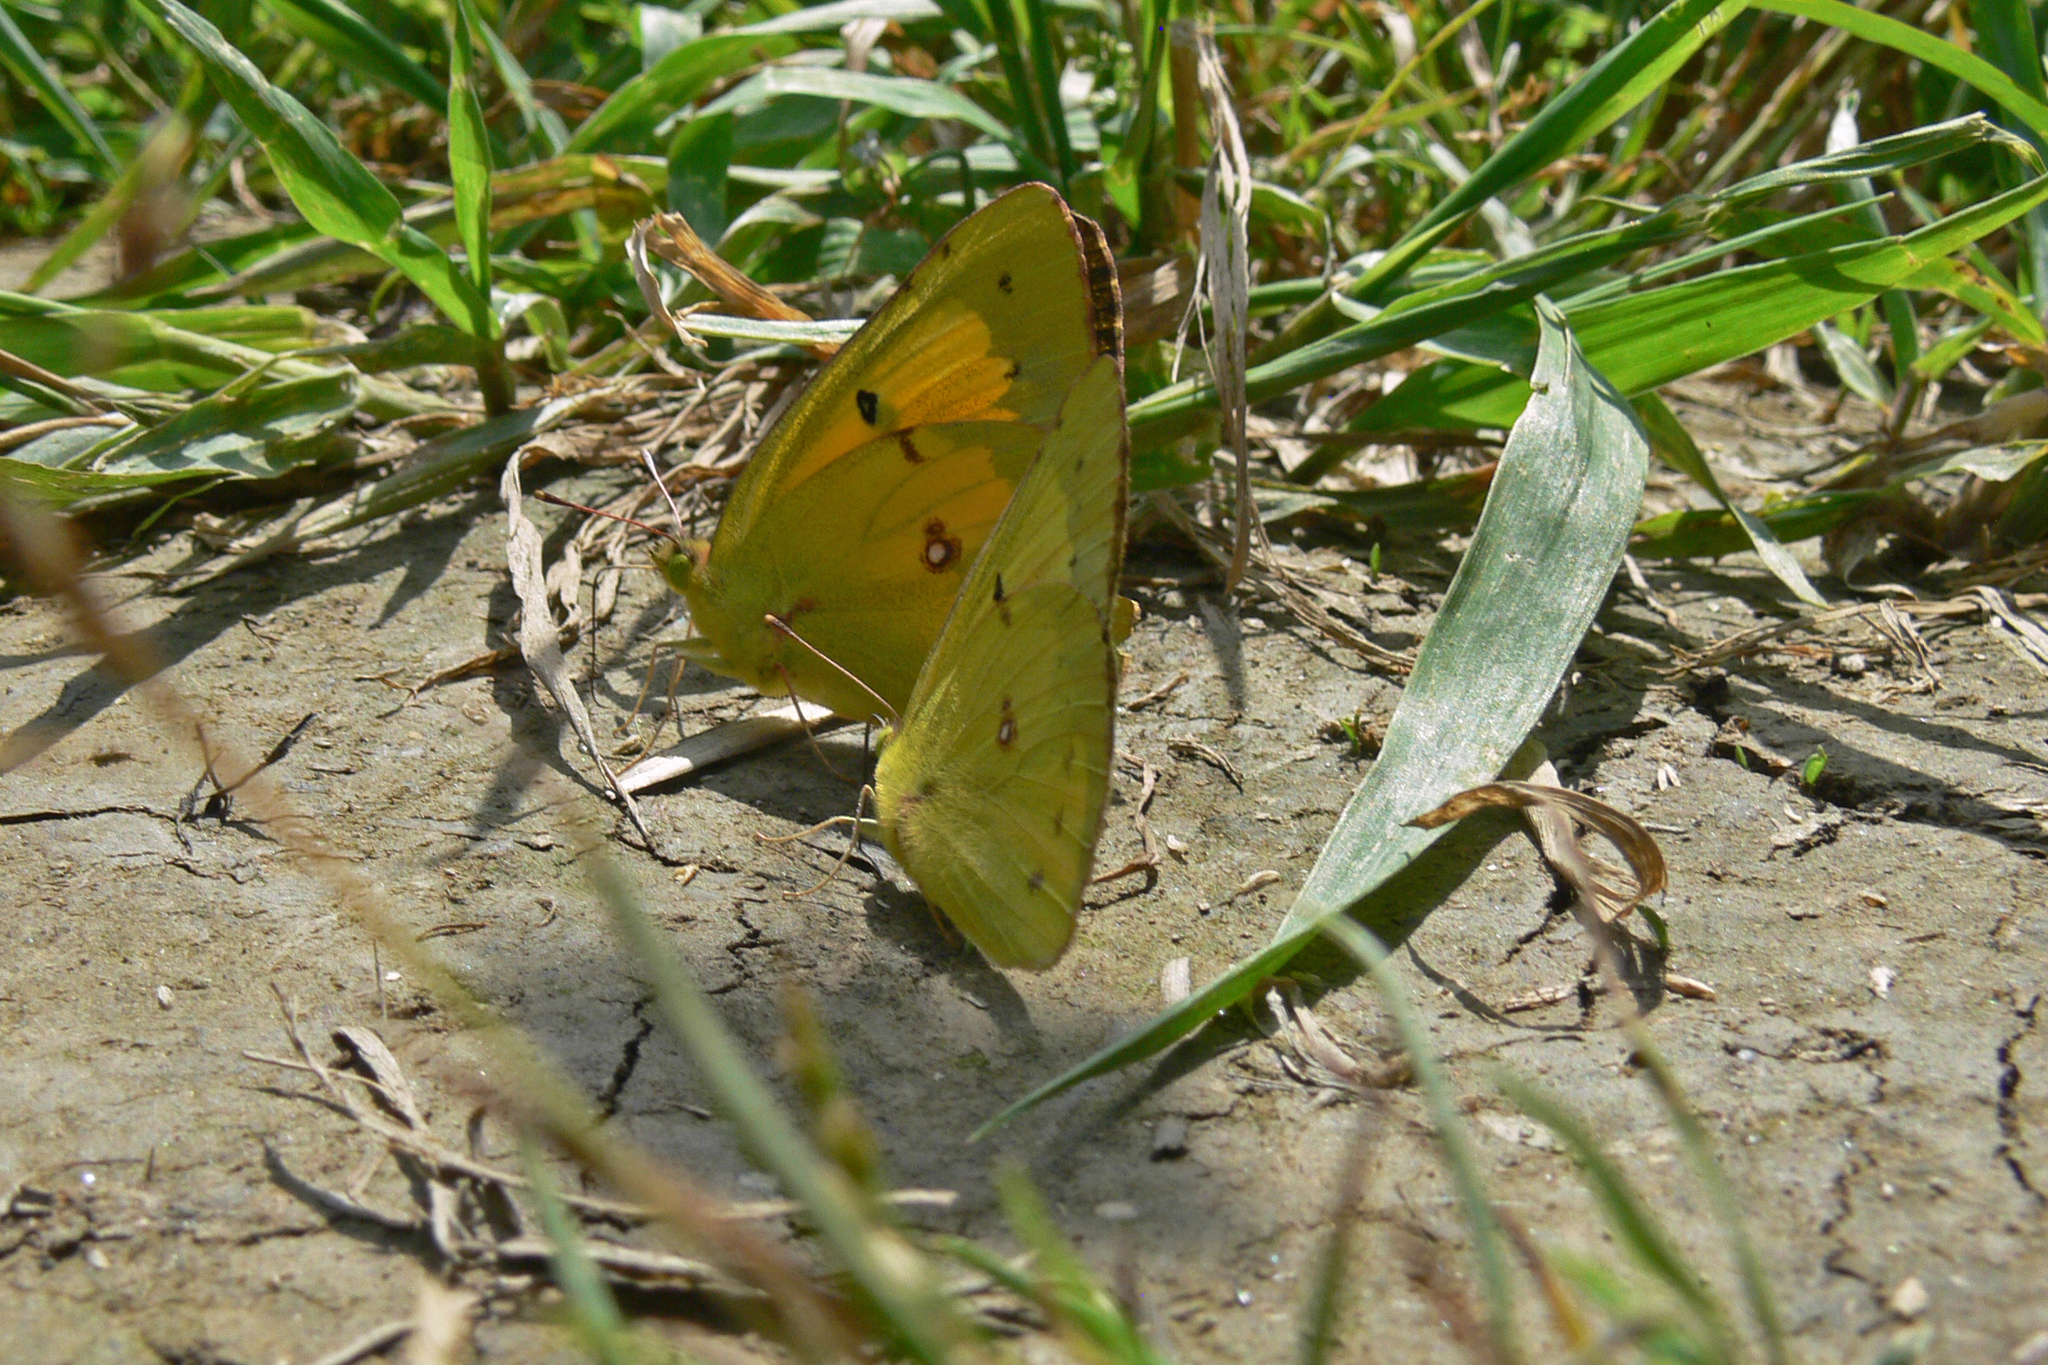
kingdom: Animalia
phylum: Arthropoda
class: Insecta
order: Lepidoptera
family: Pieridae
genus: Colias
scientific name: Colias eurytheme
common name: Alfalfa butterfly
